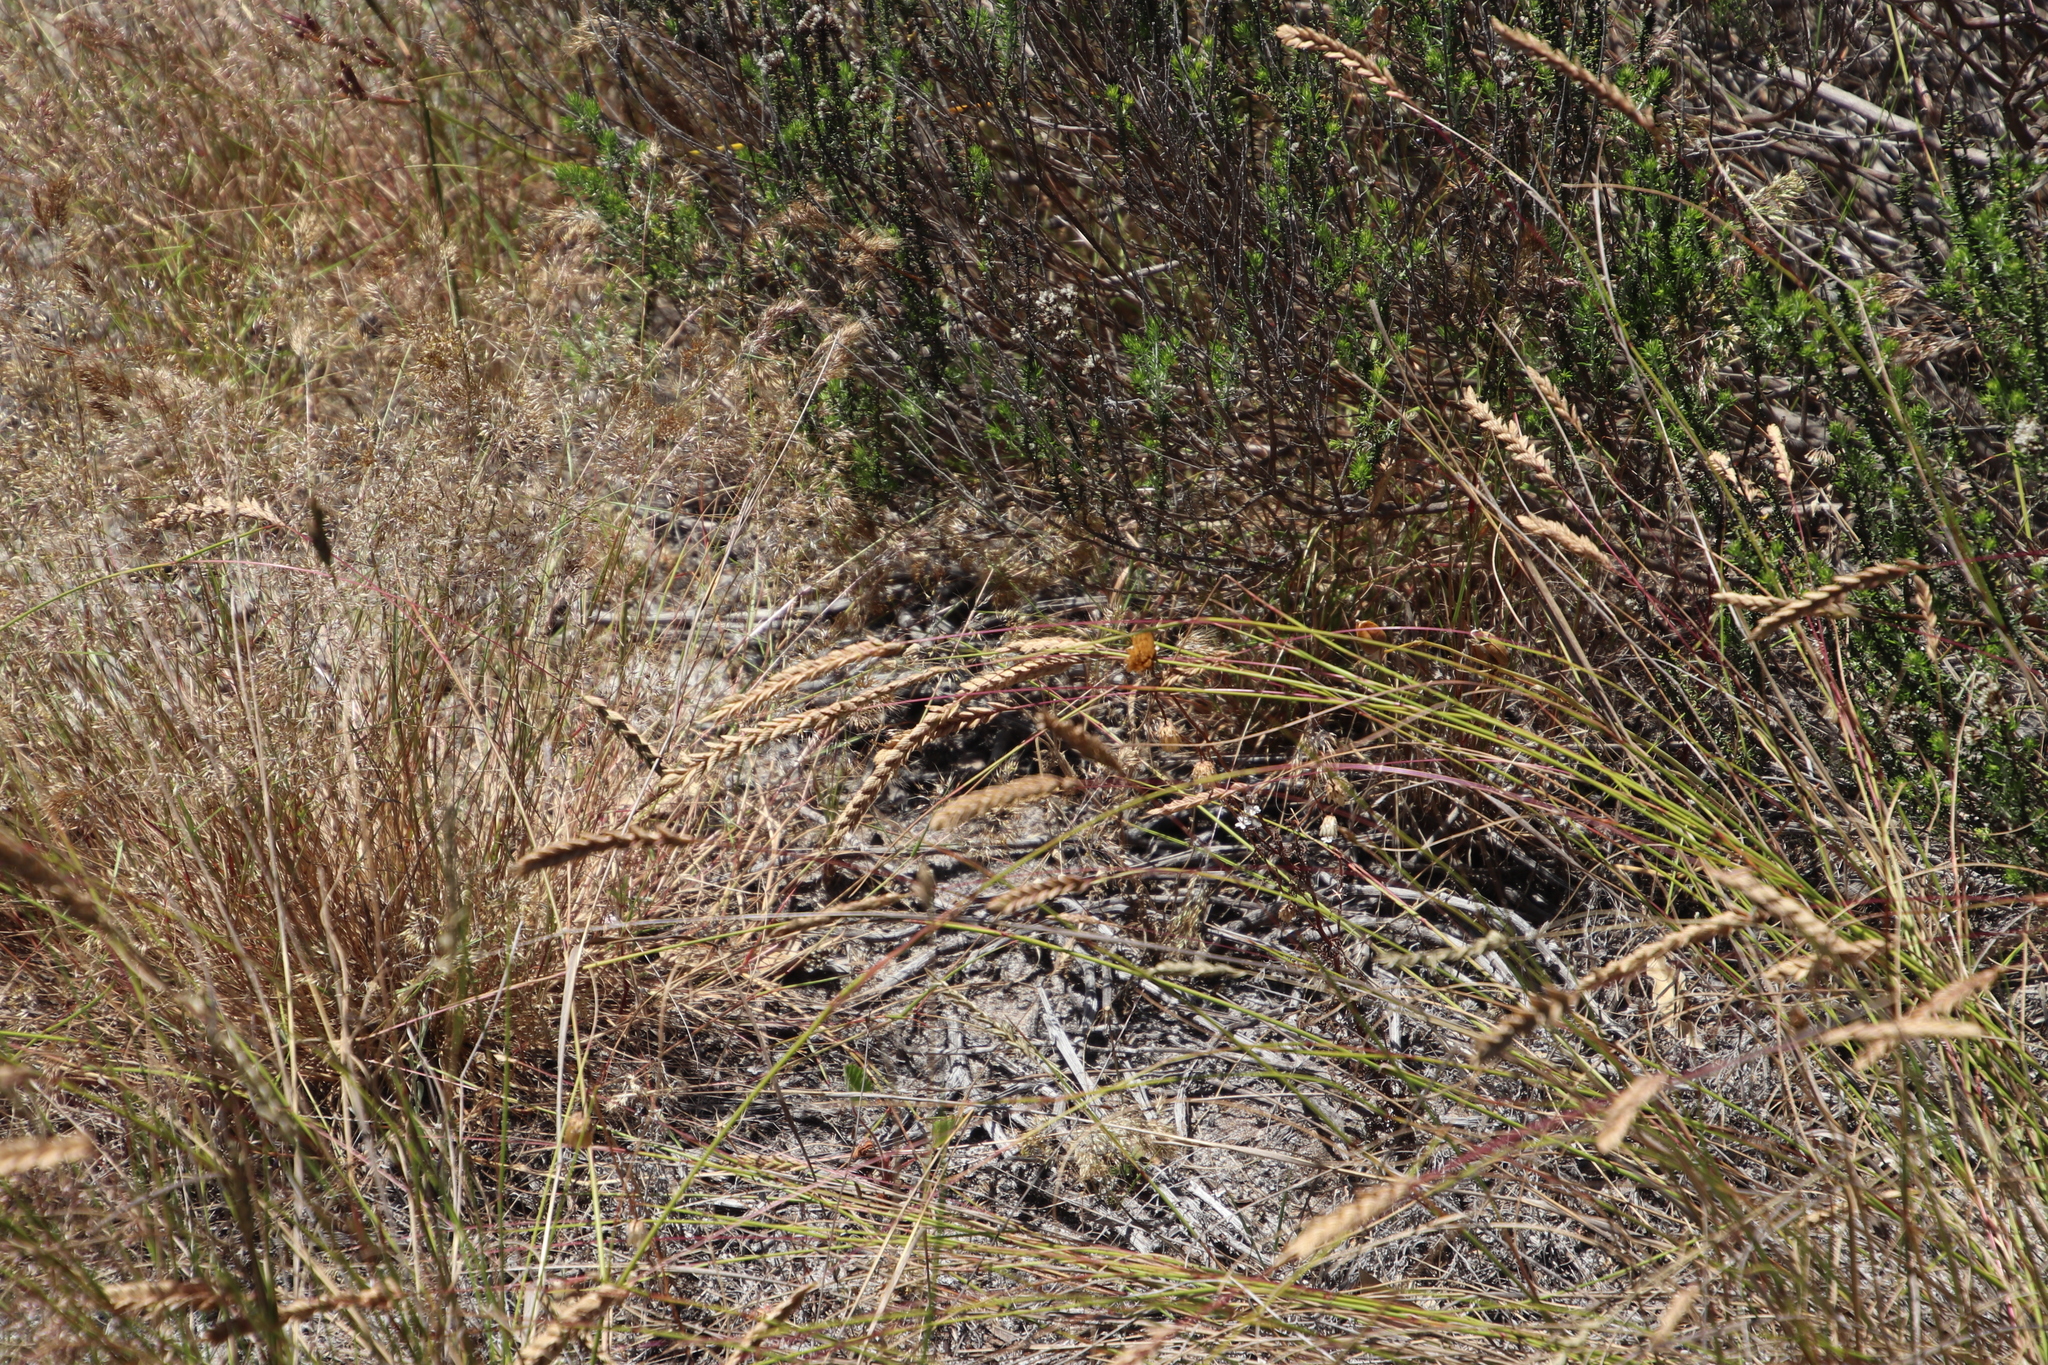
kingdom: Plantae
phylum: Tracheophyta
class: Liliopsida
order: Poales
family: Poaceae
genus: Tribolium
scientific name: Tribolium uniolae
